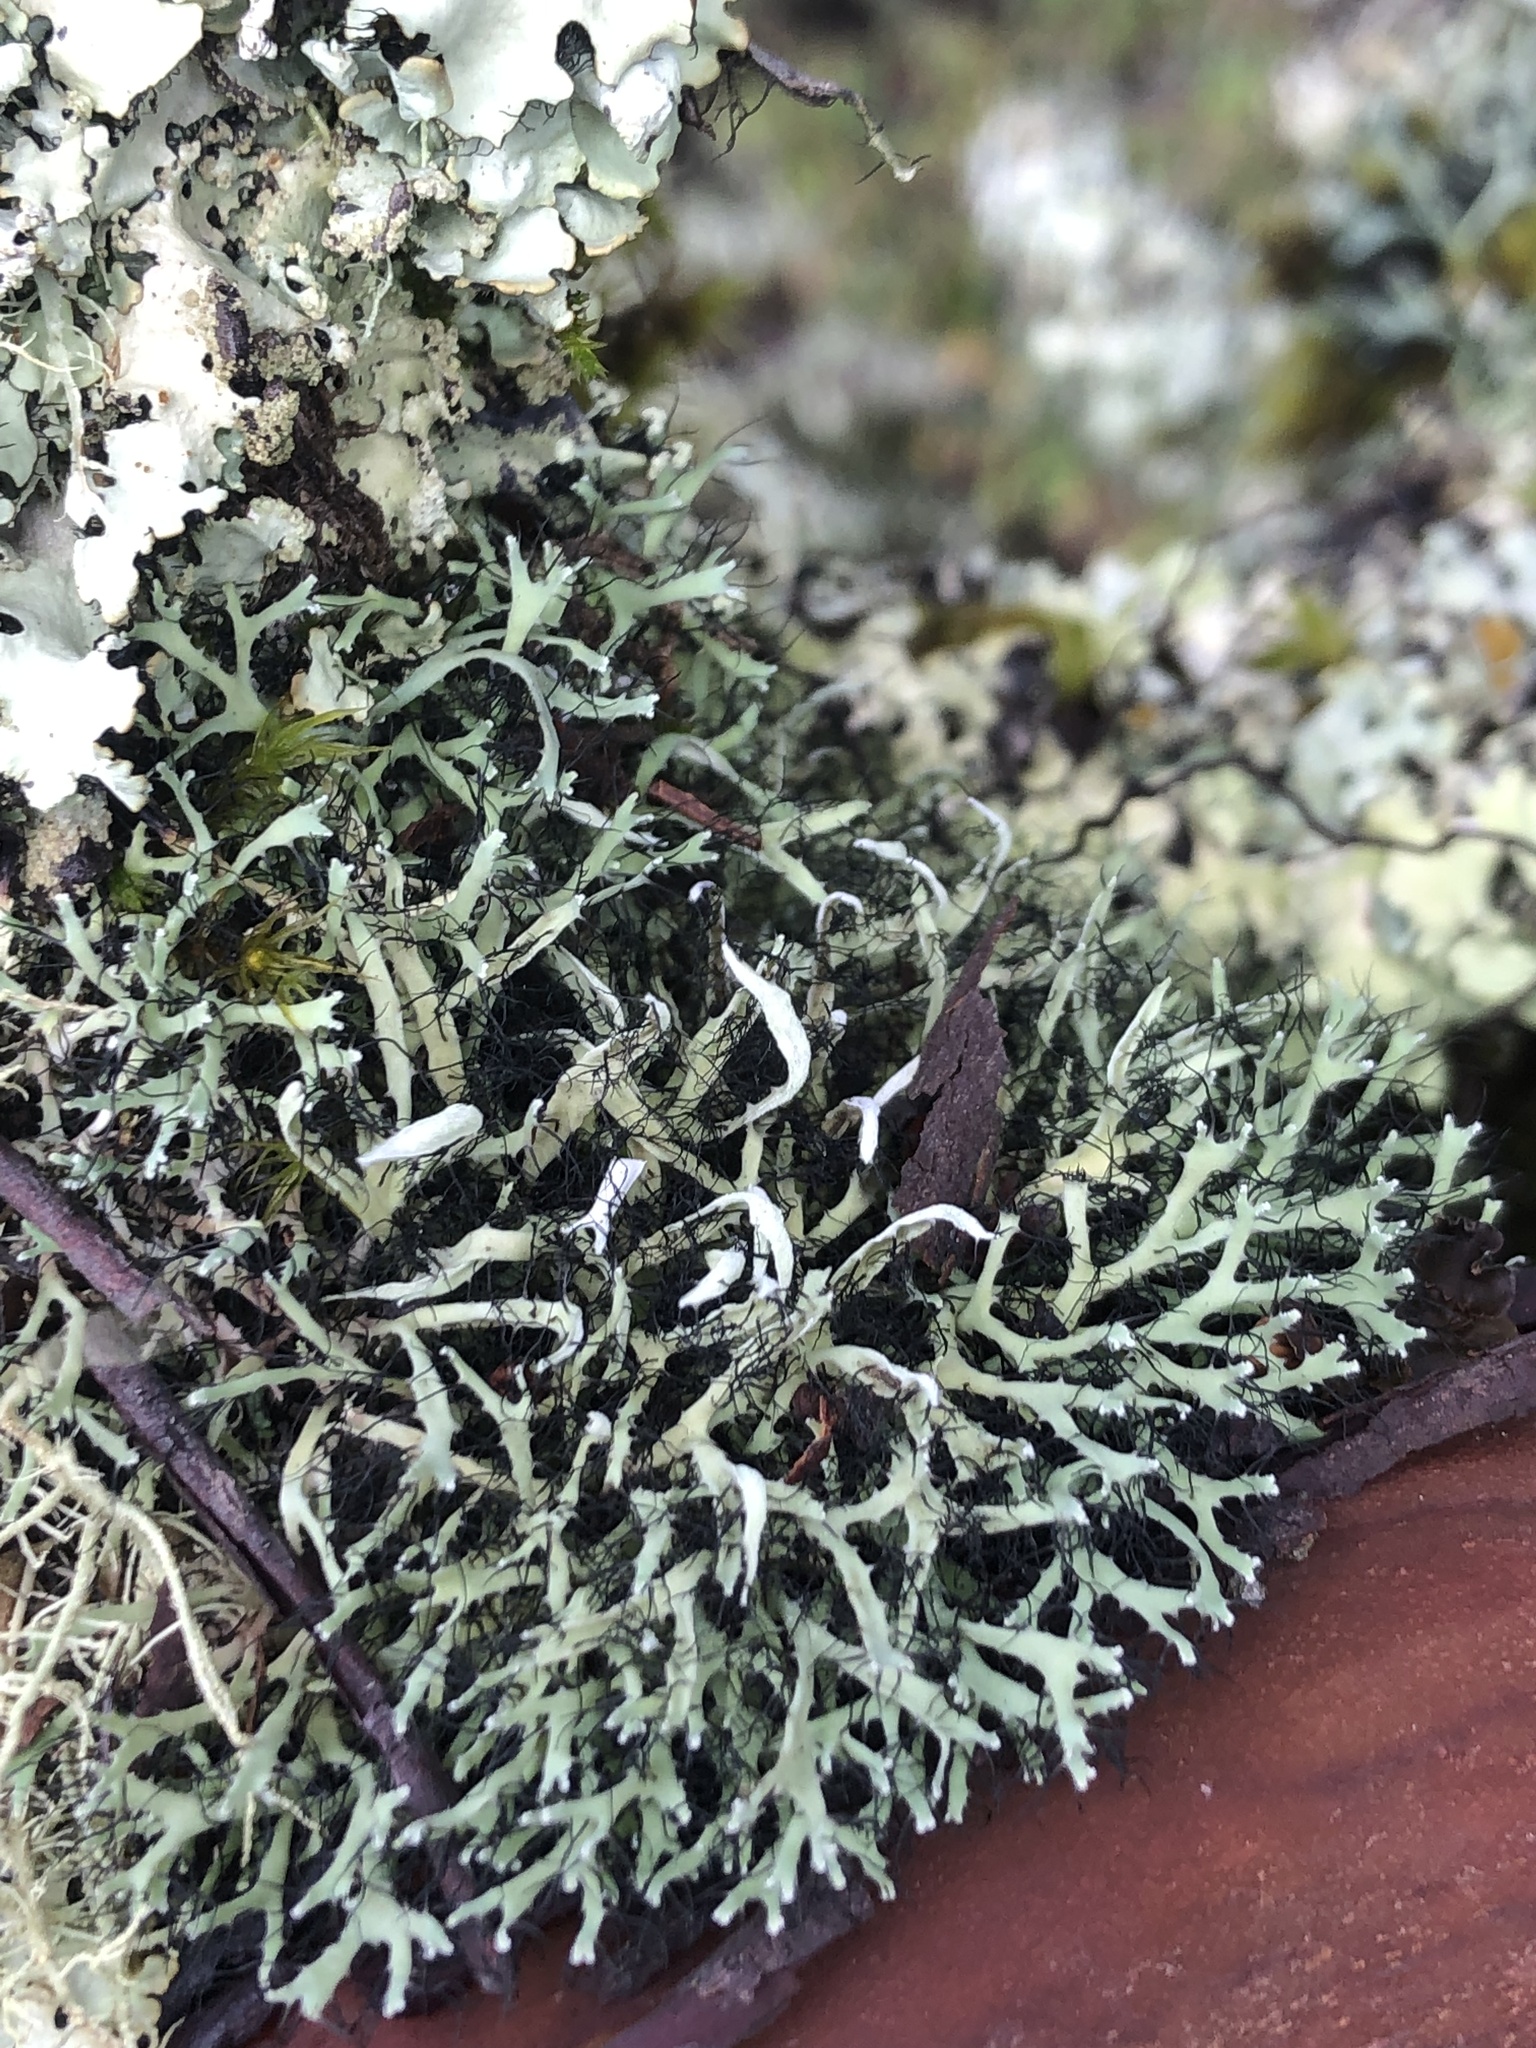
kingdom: Fungi
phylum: Ascomycota
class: Lecanoromycetes
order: Caliciales
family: Physciaceae
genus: Leucodermia
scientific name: Leucodermia leucomelos
